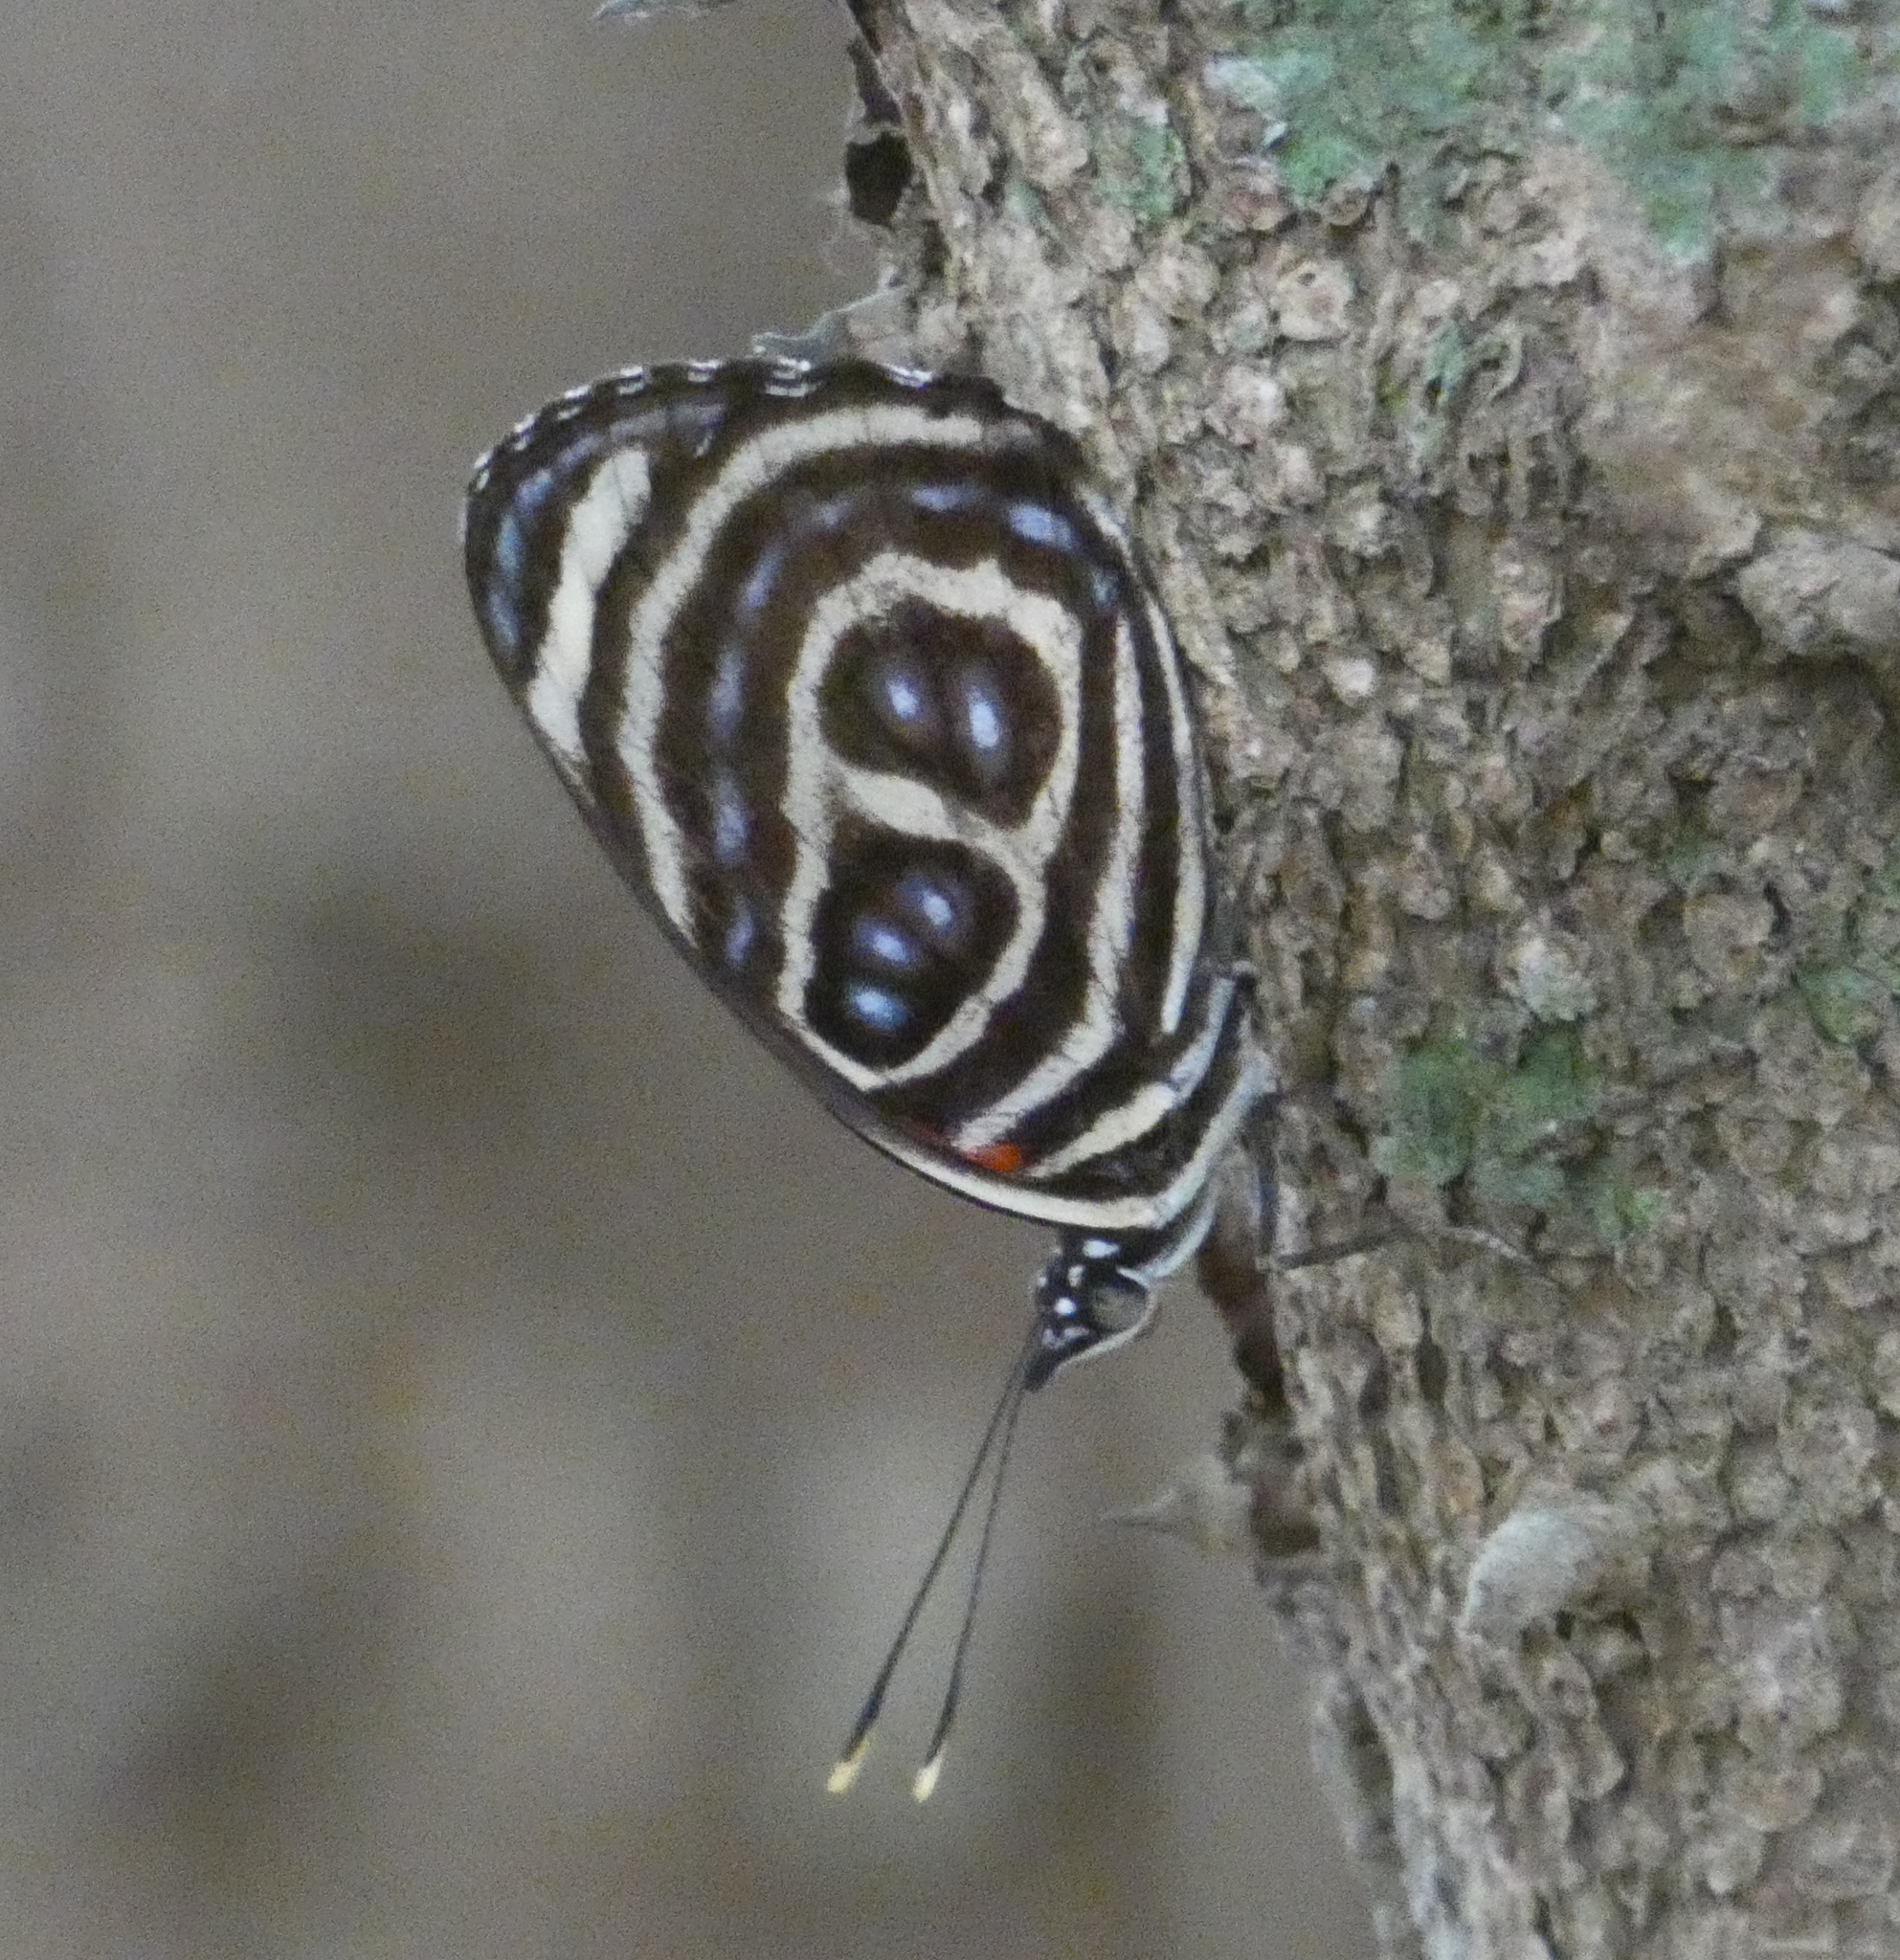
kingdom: Animalia
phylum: Arthropoda
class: Insecta
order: Lepidoptera
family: Nymphalidae
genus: Catagramma
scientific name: Catagramma pygas
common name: Godart's numberwing
